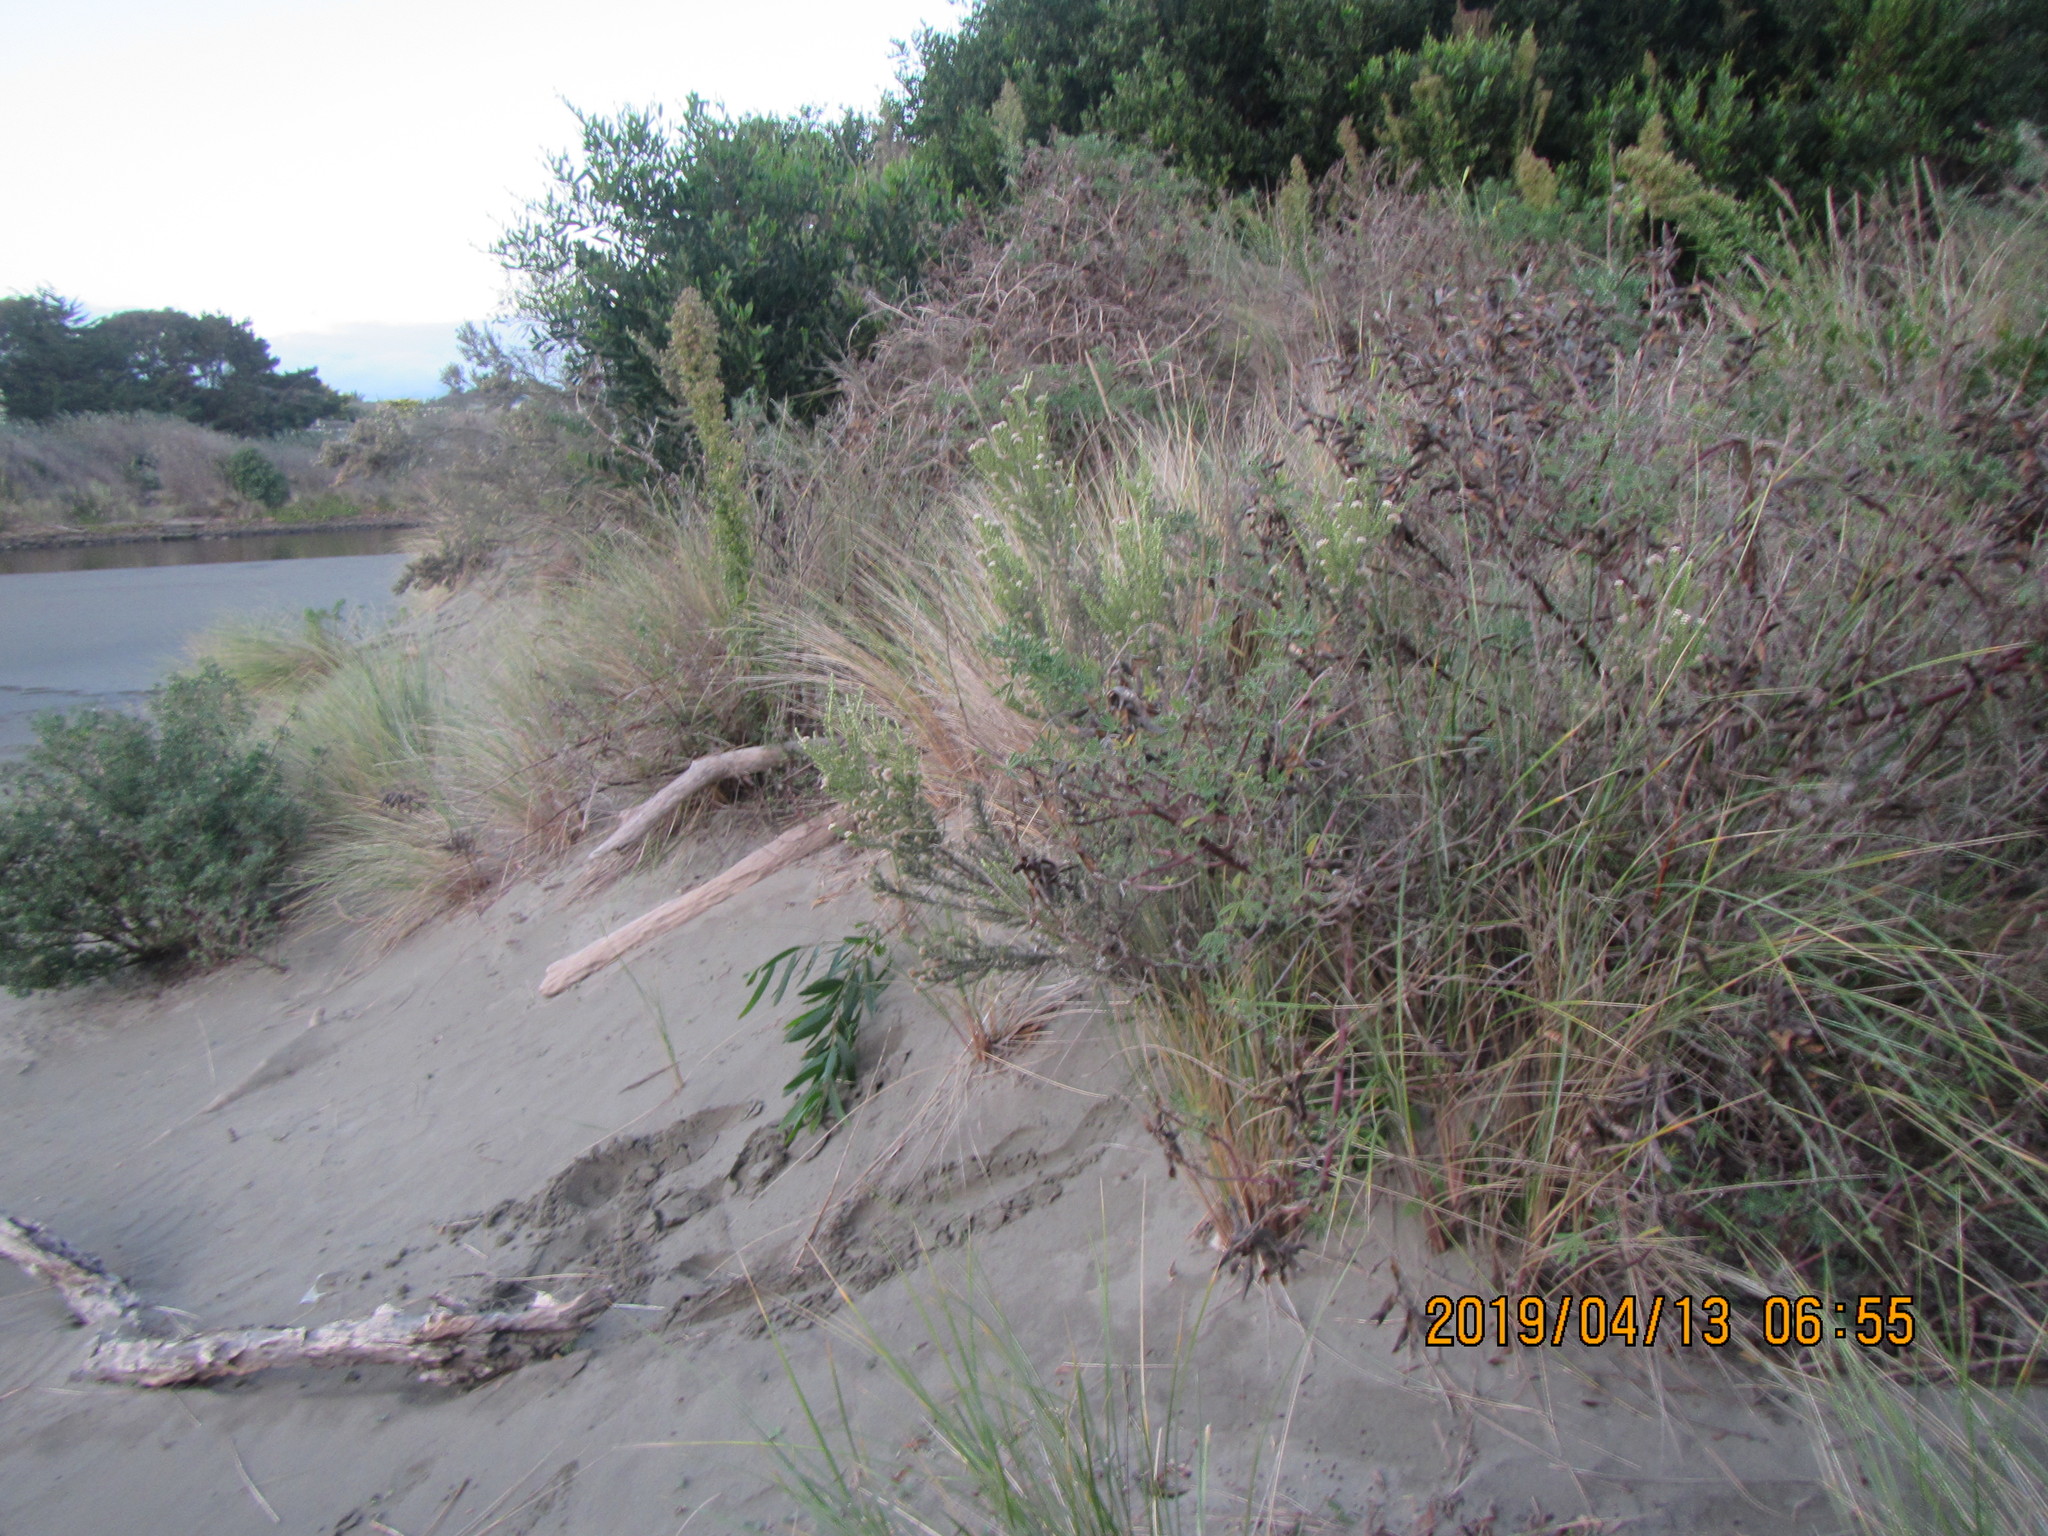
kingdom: Plantae
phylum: Tracheophyta
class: Magnoliopsida
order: Fabales
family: Fabaceae
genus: Acacia
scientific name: Acacia longifolia
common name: Sydney golden wattle
